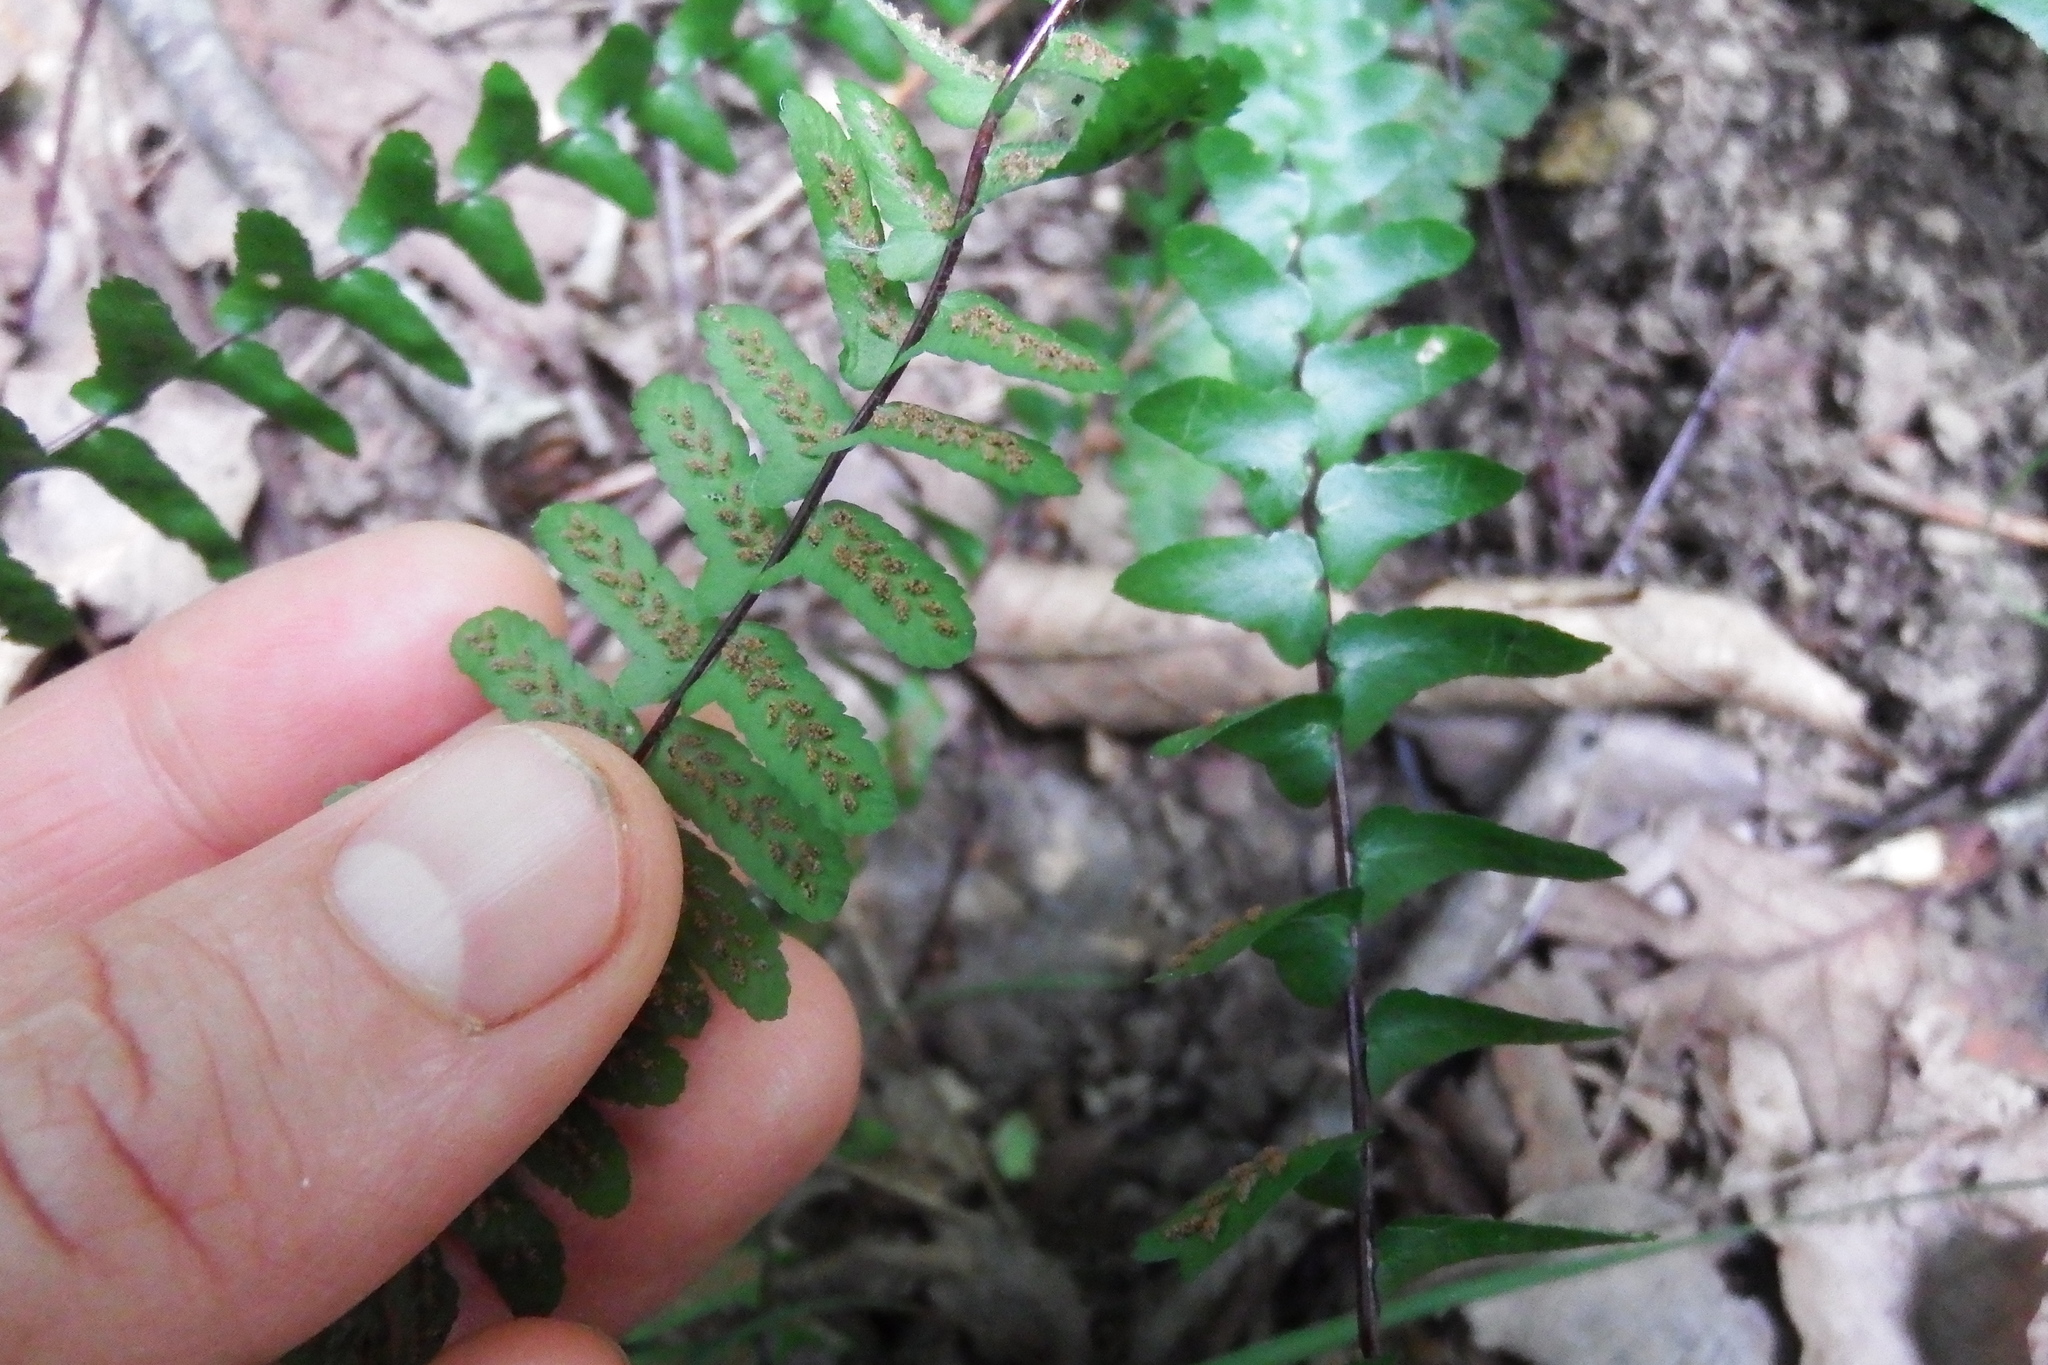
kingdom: Plantae
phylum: Tracheophyta
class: Polypodiopsida
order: Polypodiales
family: Aspleniaceae
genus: Asplenium
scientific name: Asplenium platyneuron
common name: Ebony spleenwort
